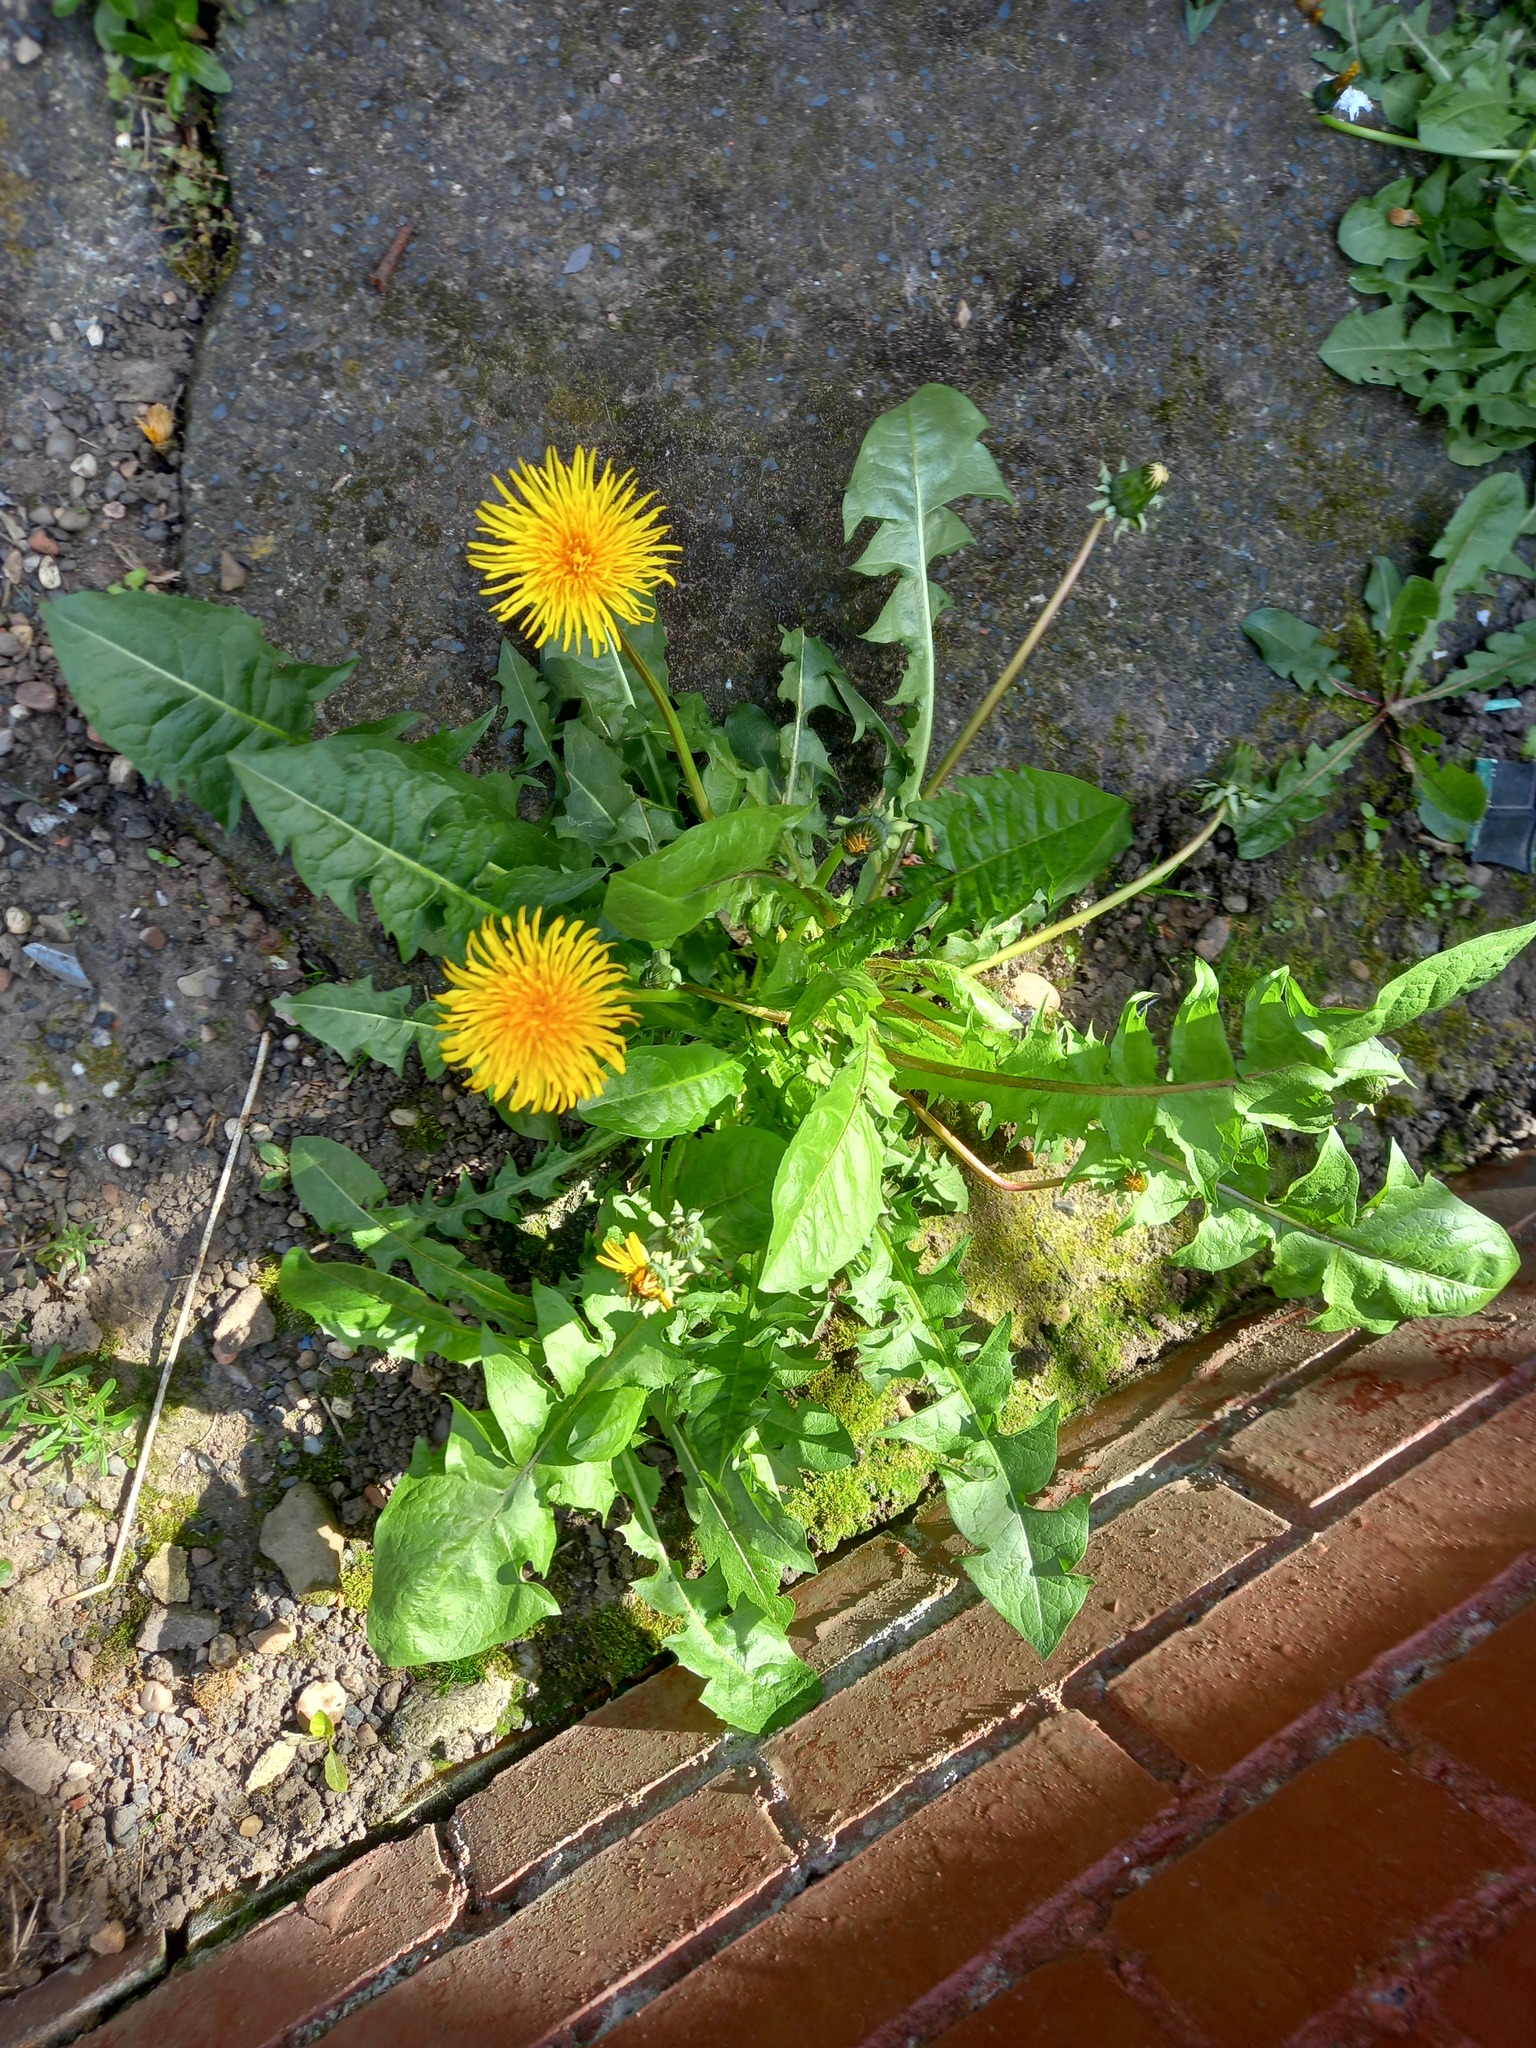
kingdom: Plantae
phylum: Tracheophyta
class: Magnoliopsida
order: Asterales
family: Asteraceae
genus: Taraxacum
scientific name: Taraxacum officinale
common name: Common dandelion
